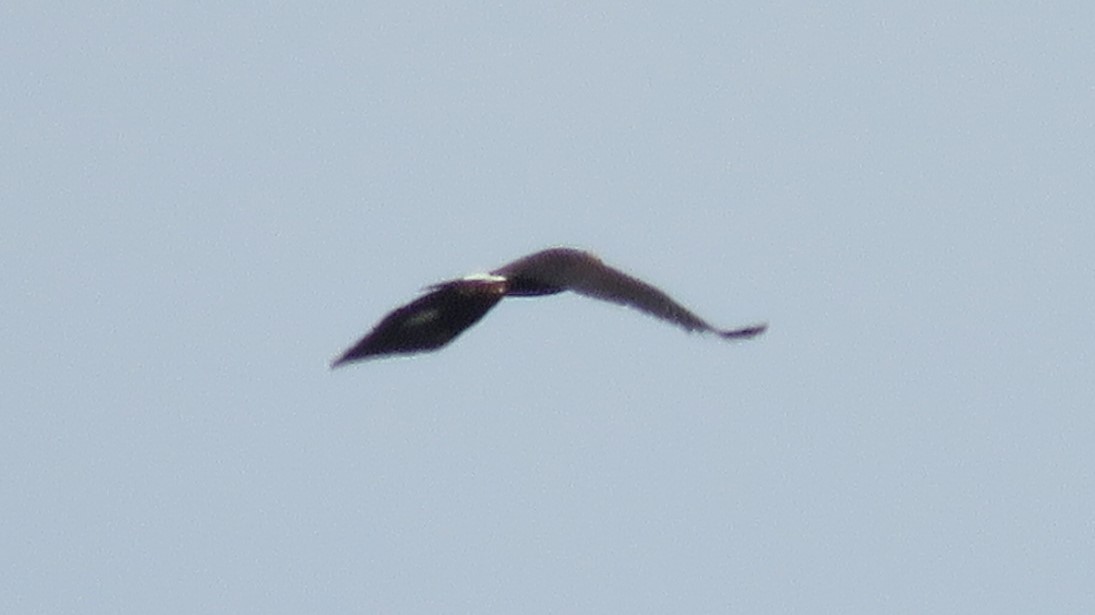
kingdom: Animalia
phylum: Chordata
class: Aves
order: Accipitriformes
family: Accipitridae
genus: Aquila
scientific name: Aquila chrysaetos
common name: Golden eagle
